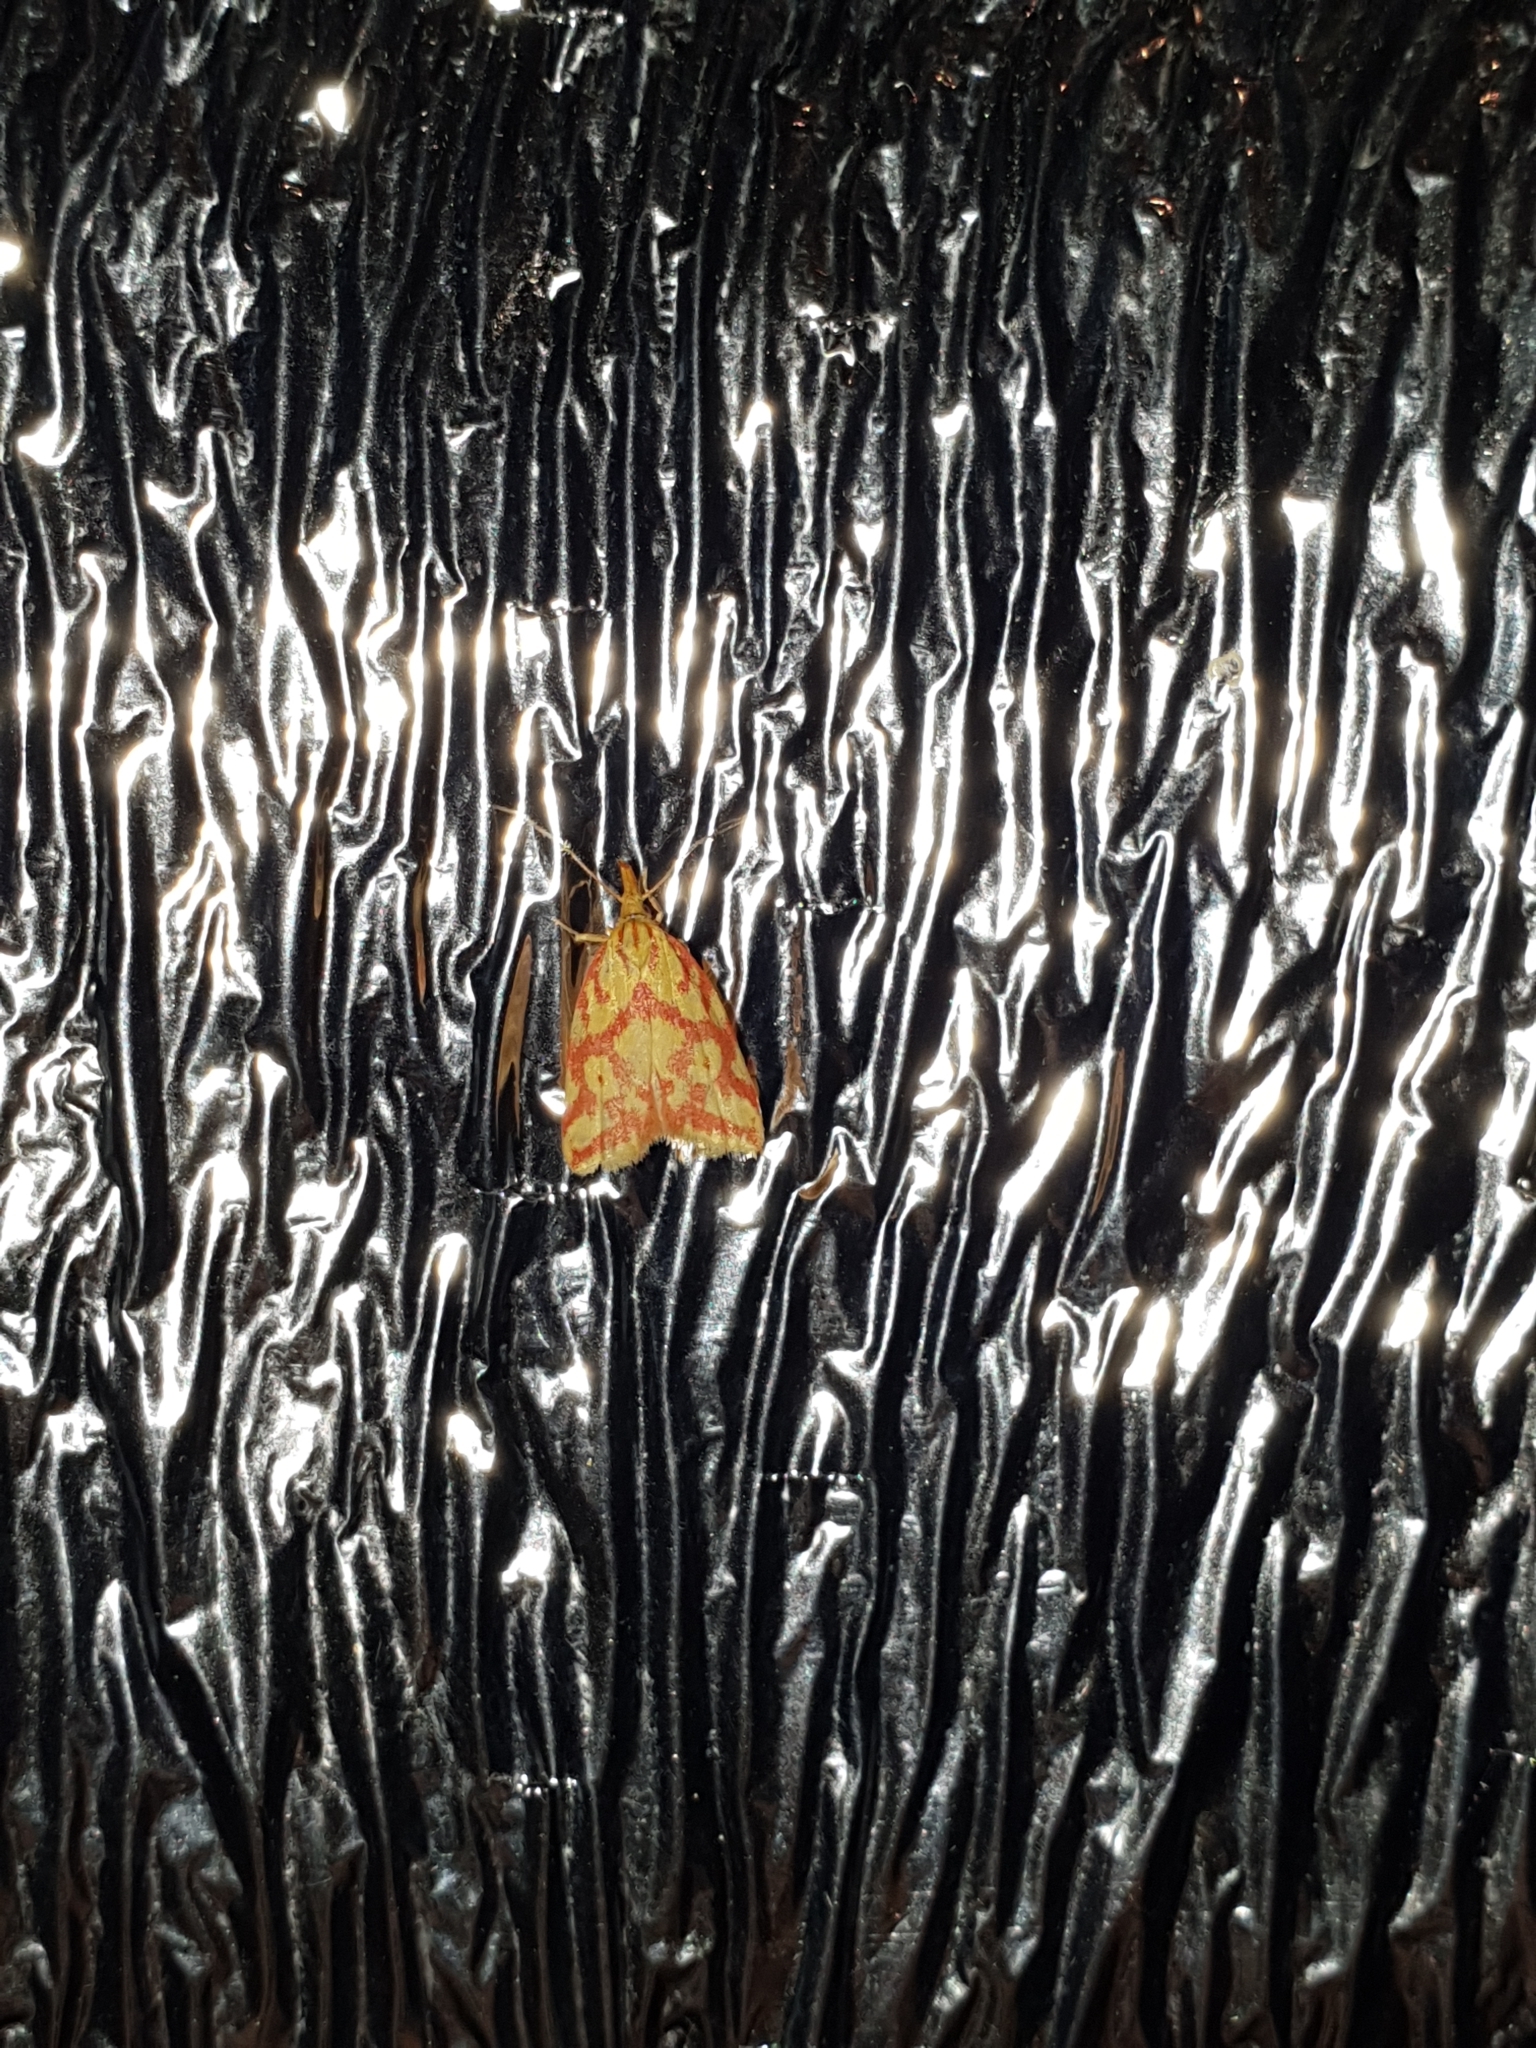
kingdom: Animalia
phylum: Arthropoda
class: Insecta
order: Lepidoptera
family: Oecophoridae
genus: Hypercallia
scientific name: Hypercallia citrinalis
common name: Lemon flat-body
